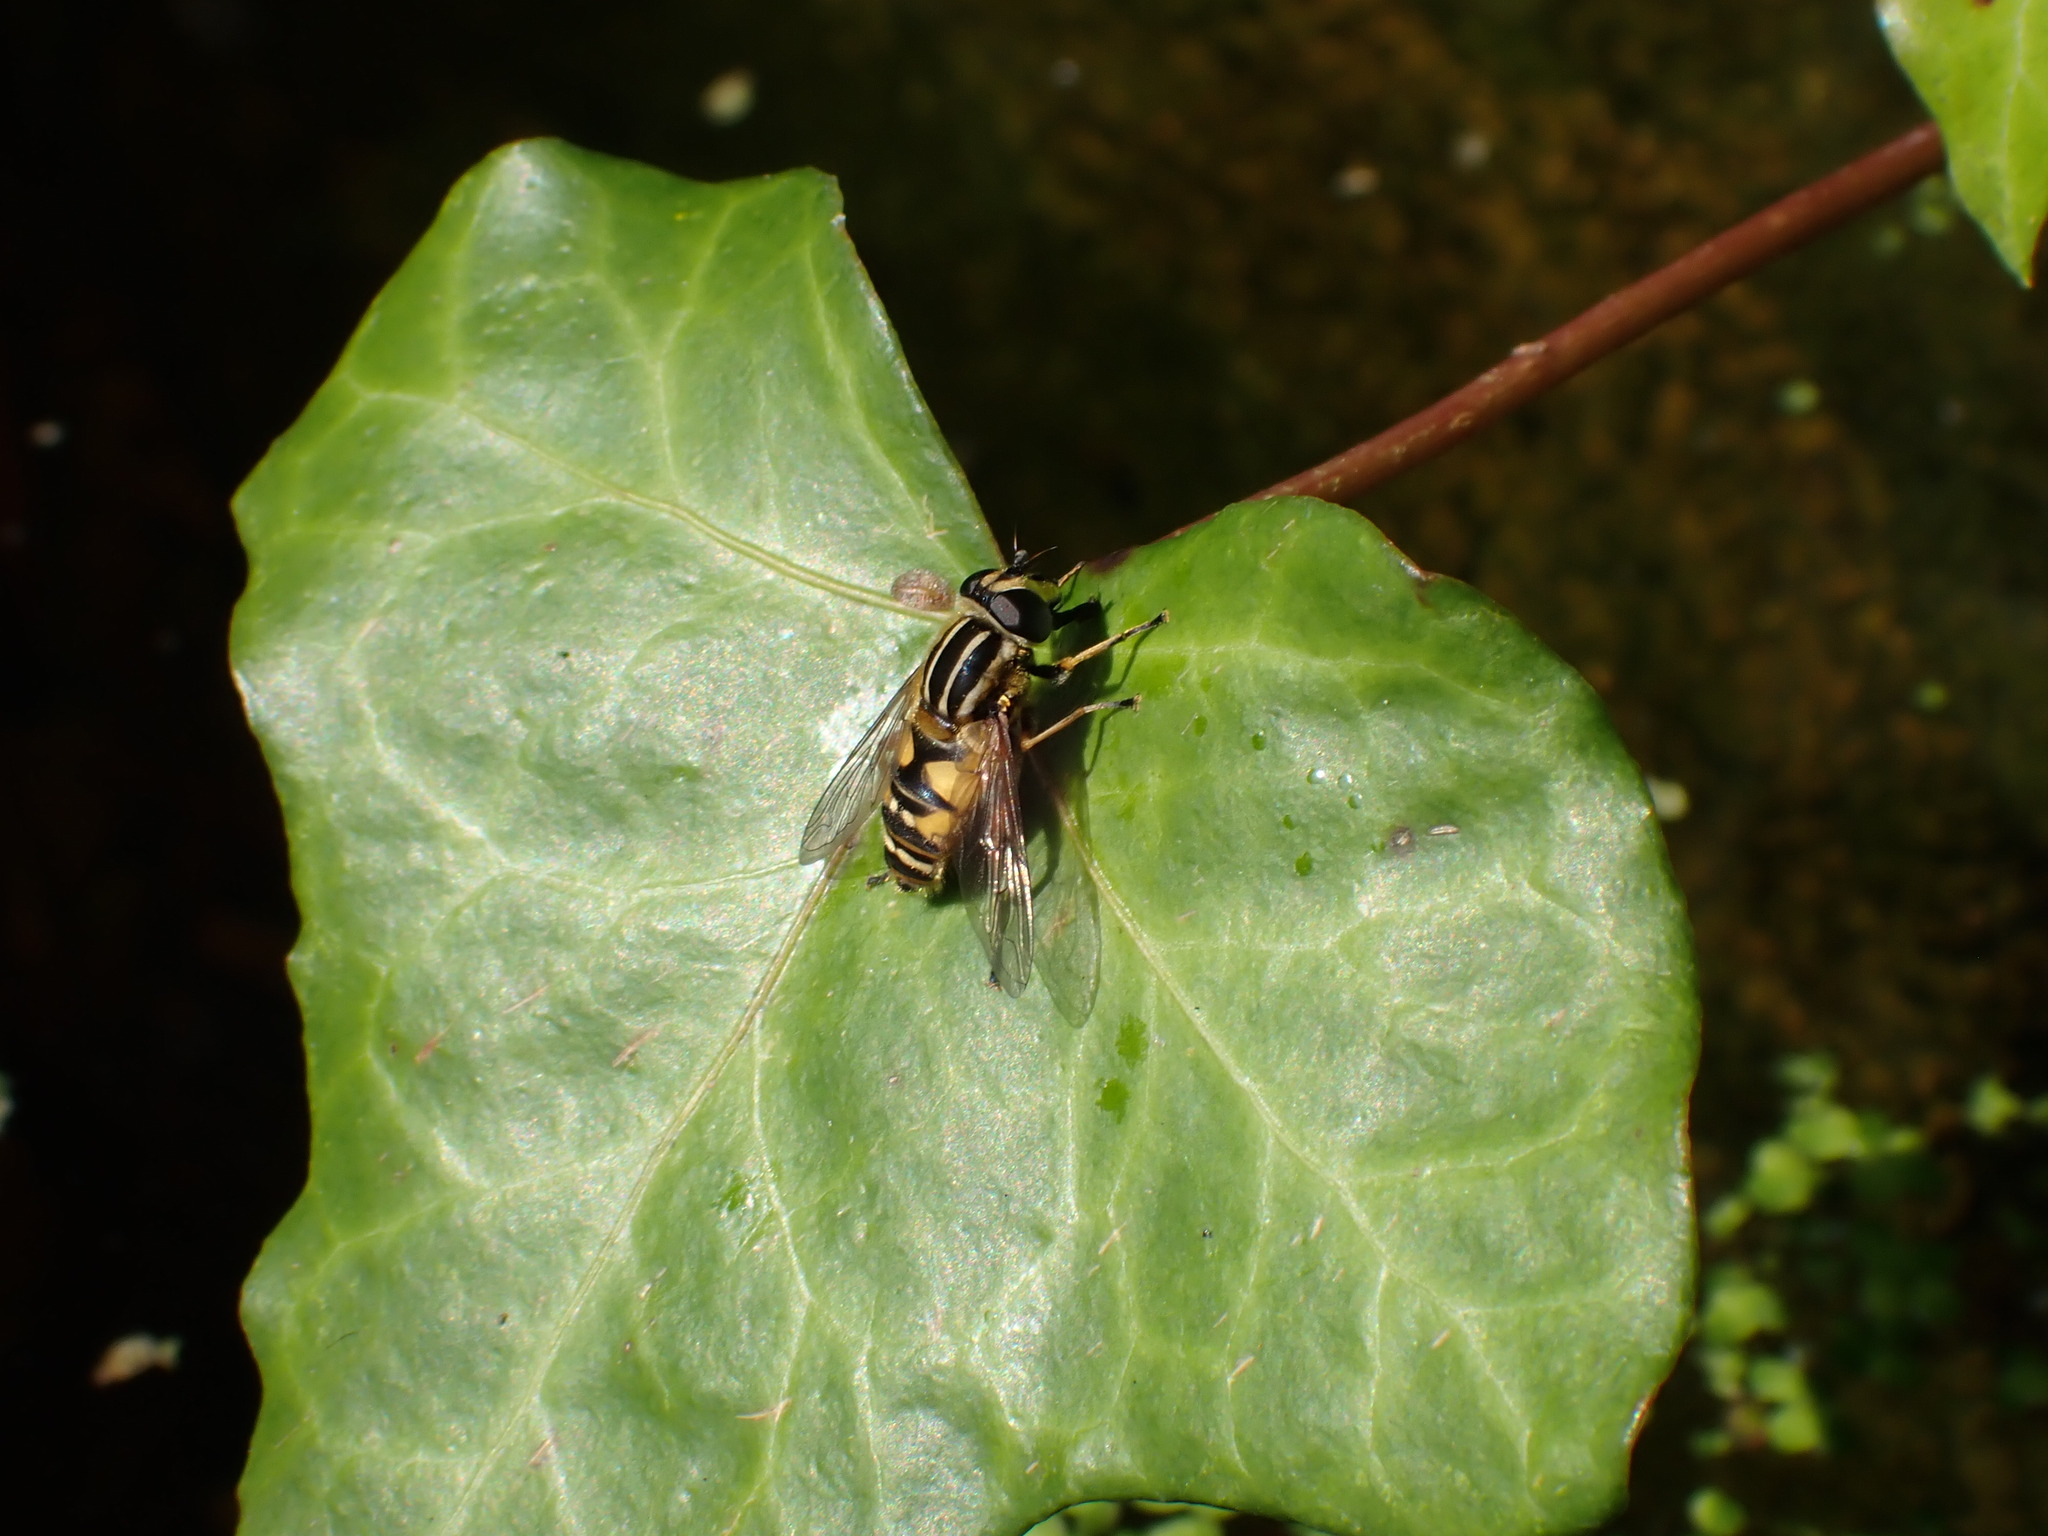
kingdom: Animalia
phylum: Arthropoda
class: Insecta
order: Diptera
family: Syrphidae
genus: Helophilus
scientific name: Helophilus pendulus
